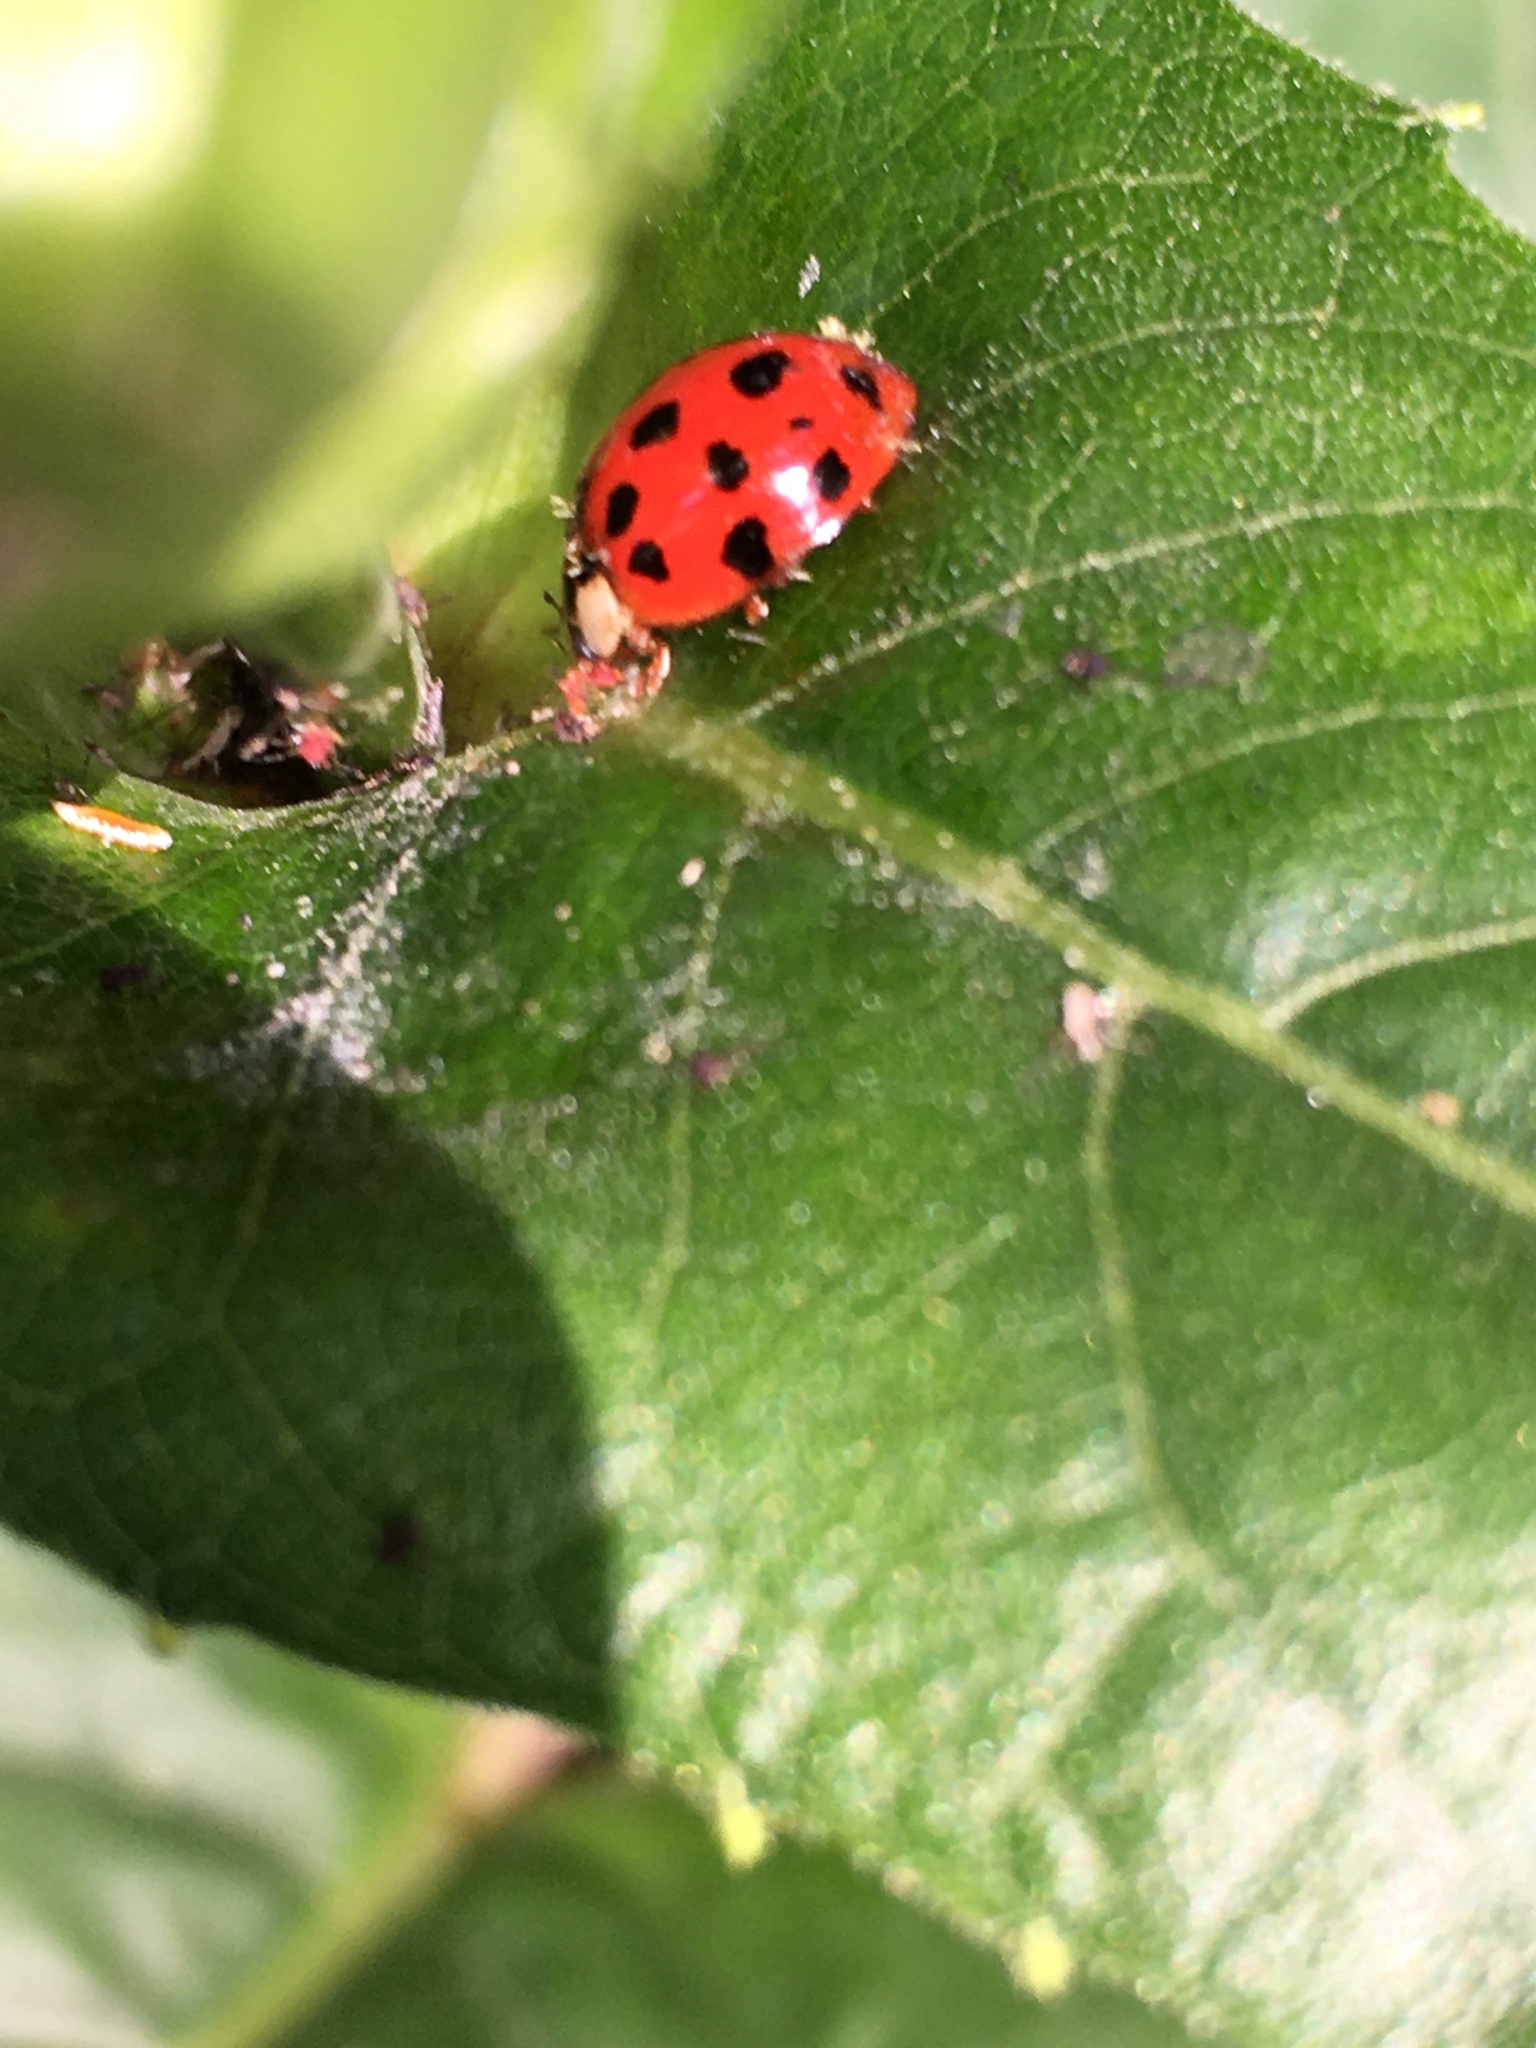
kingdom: Fungi
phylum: Ascomycota
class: Laboulbeniomycetes
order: Laboulbeniales
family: Laboulbeniaceae
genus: Hesperomyces
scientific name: Hesperomyces harmoniae
